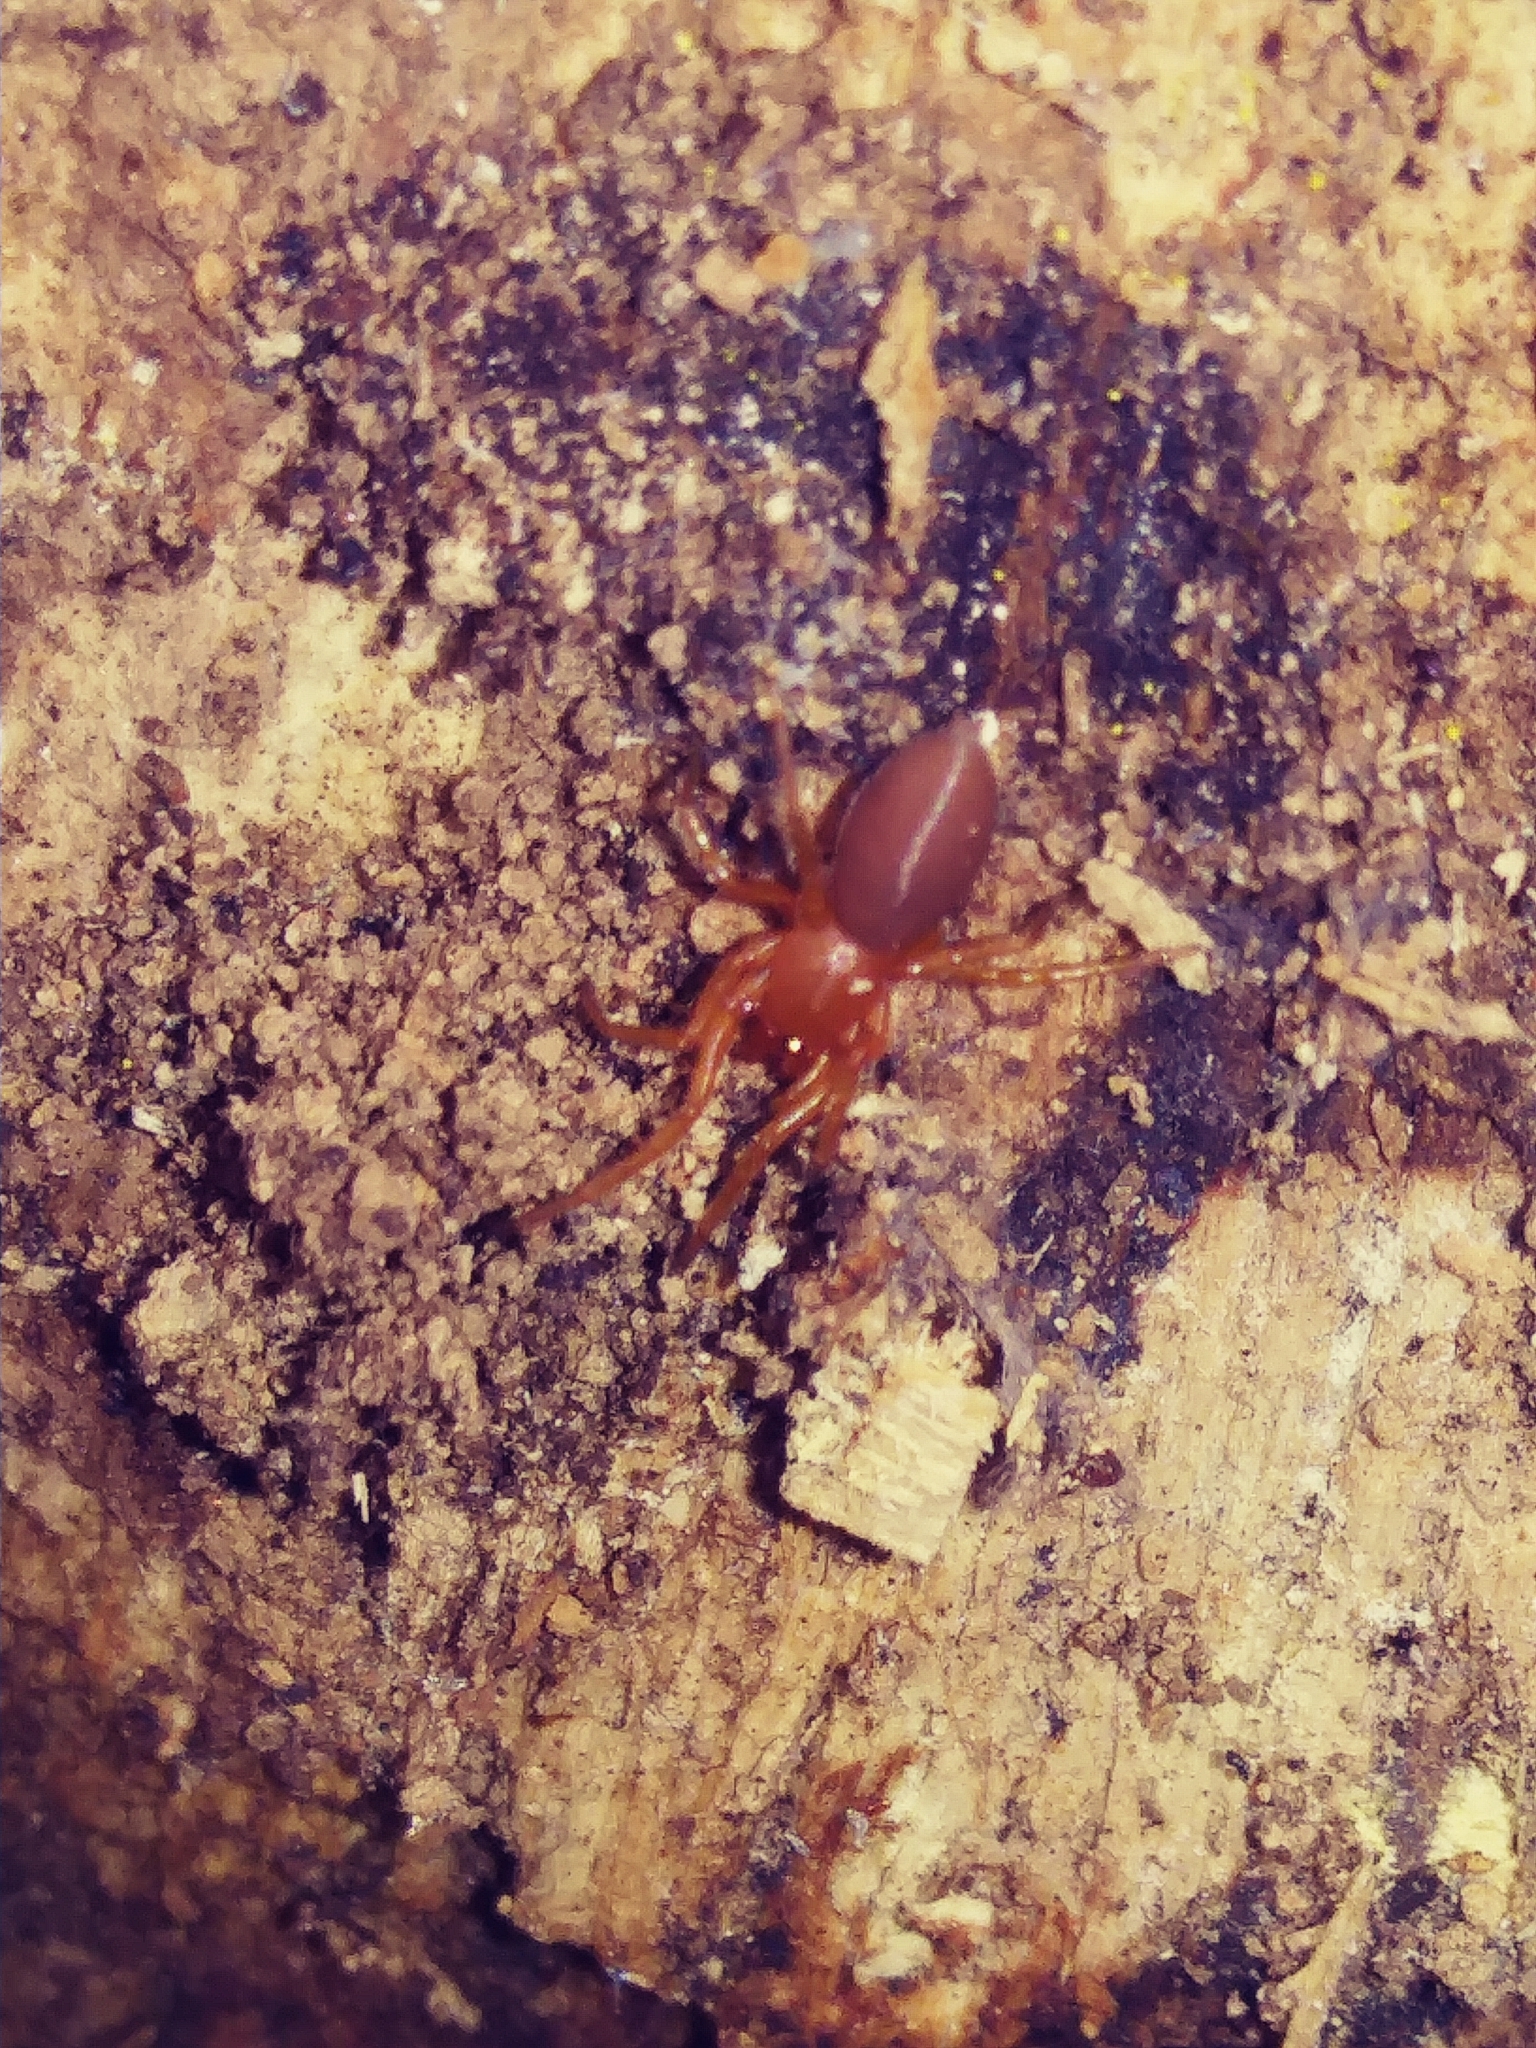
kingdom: Animalia
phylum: Arthropoda
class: Arachnida
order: Araneae
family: Dysderidae
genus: Dysdera
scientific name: Dysdera crocata
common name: Woodlouse spider
